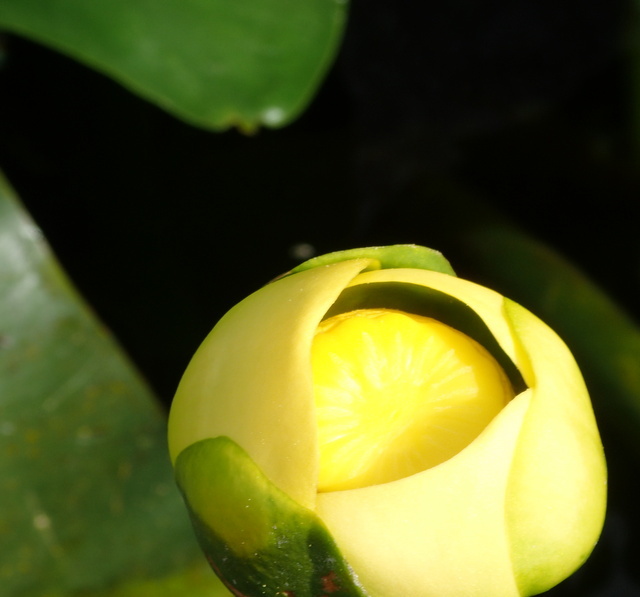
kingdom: Plantae
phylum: Tracheophyta
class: Magnoliopsida
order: Nymphaeales
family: Nymphaeaceae
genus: Nuphar
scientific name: Nuphar advena
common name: Spatter-dock
